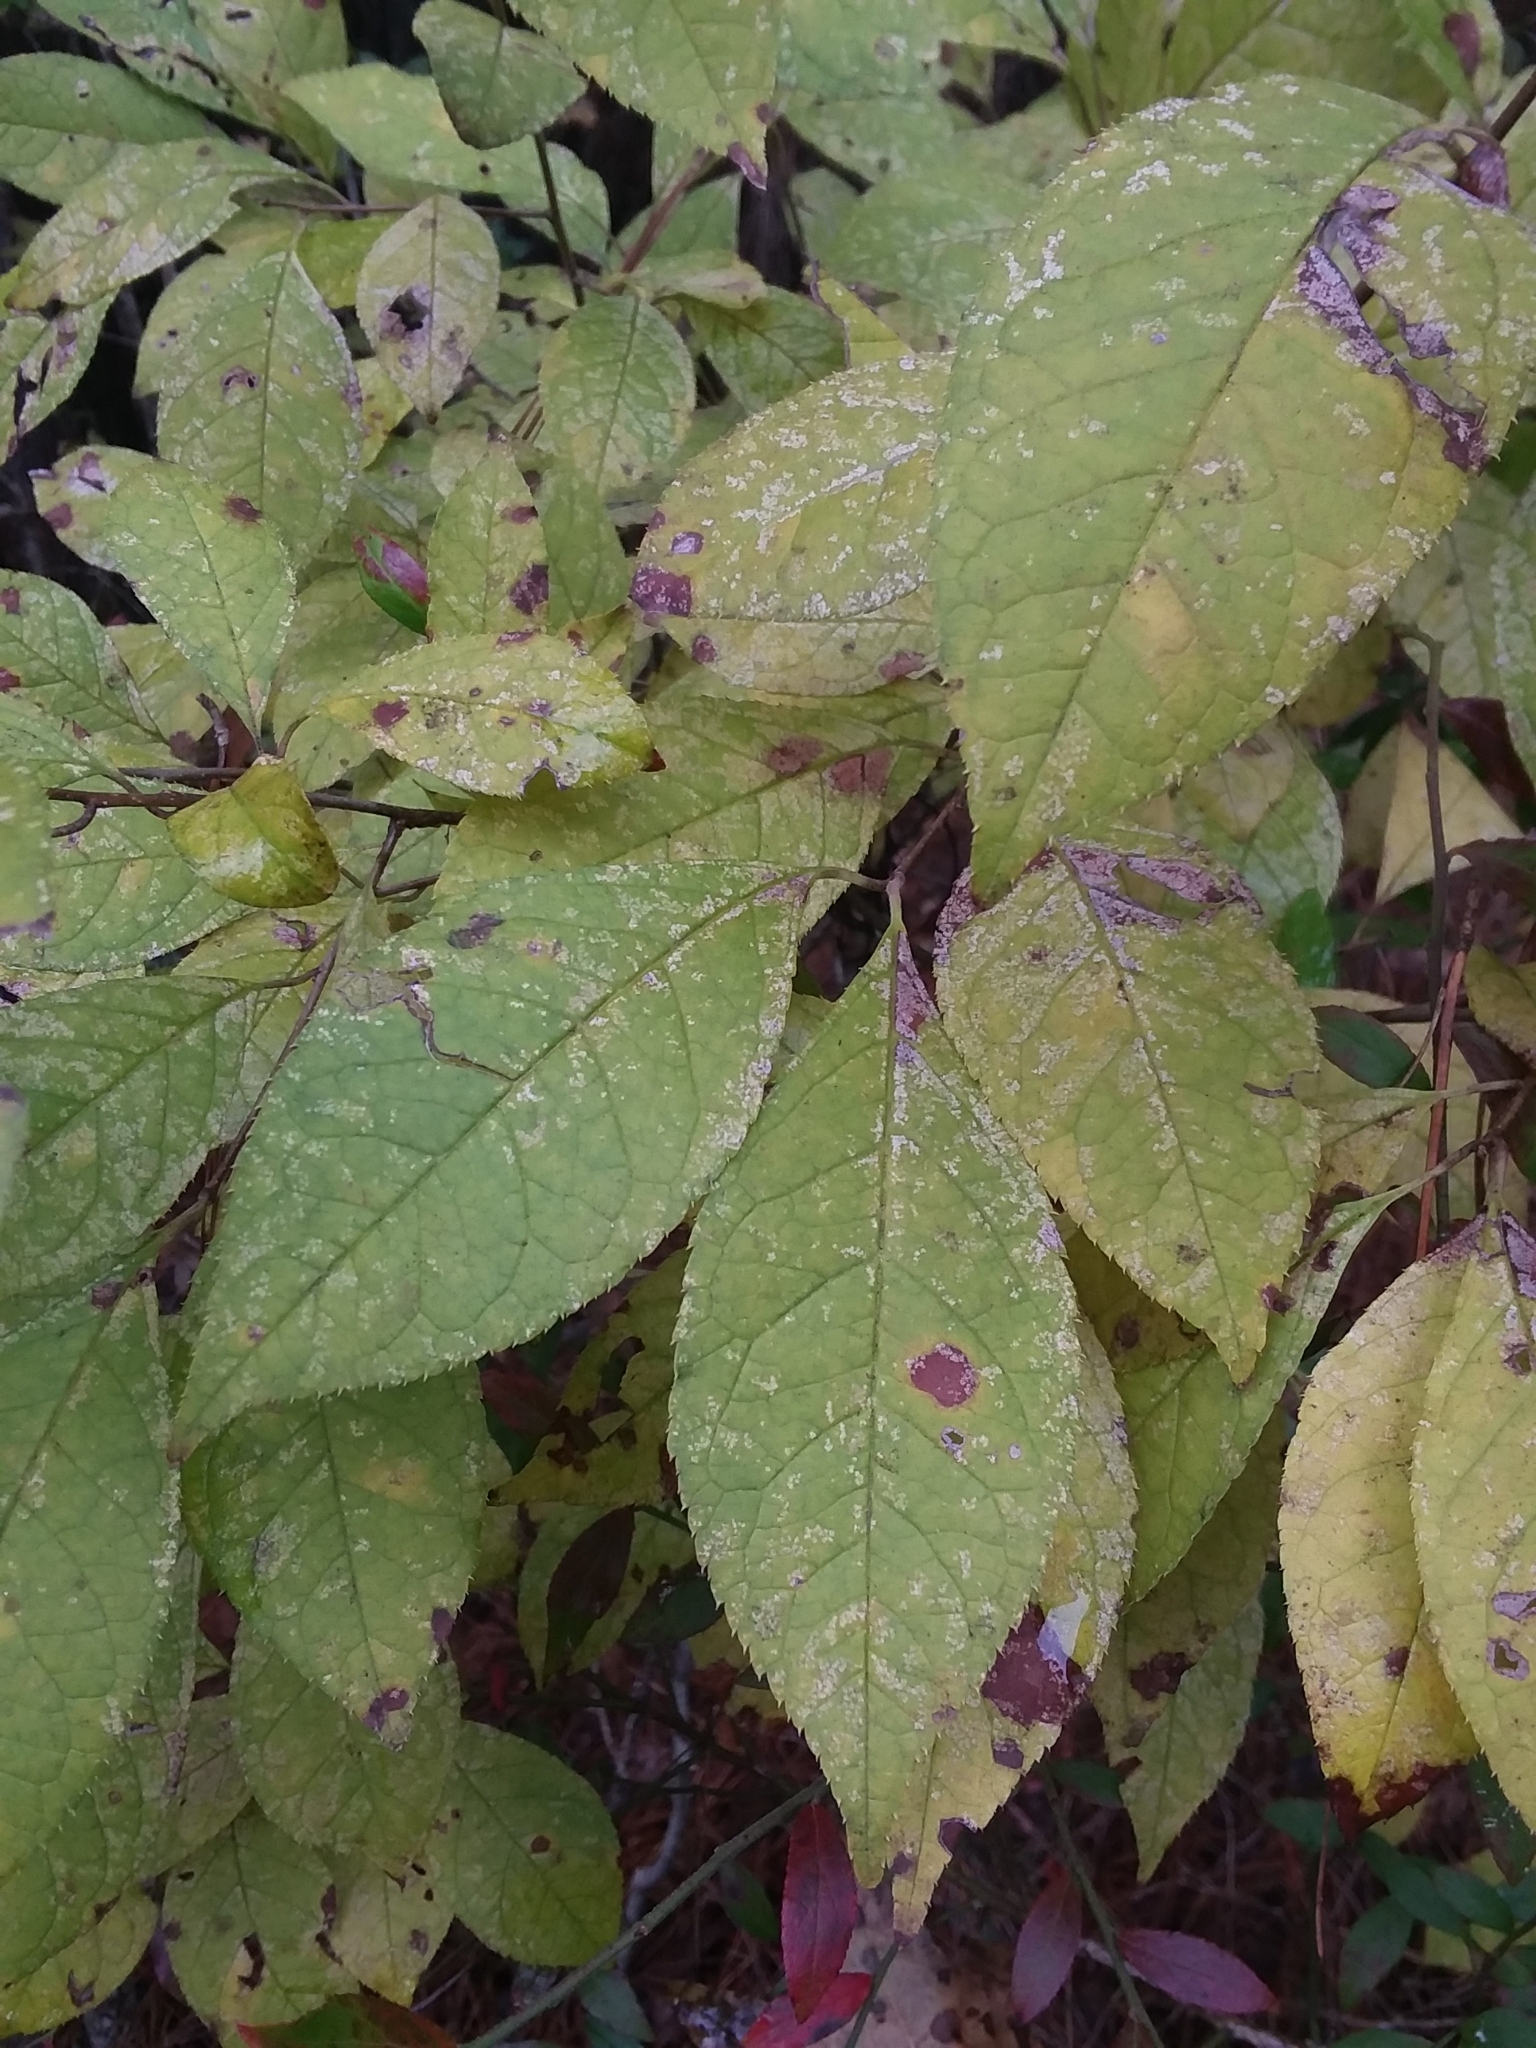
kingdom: Plantae
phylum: Tracheophyta
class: Magnoliopsida
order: Aquifoliales
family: Aquifoliaceae
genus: Ilex
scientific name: Ilex verticillata
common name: Virginia winterberry
